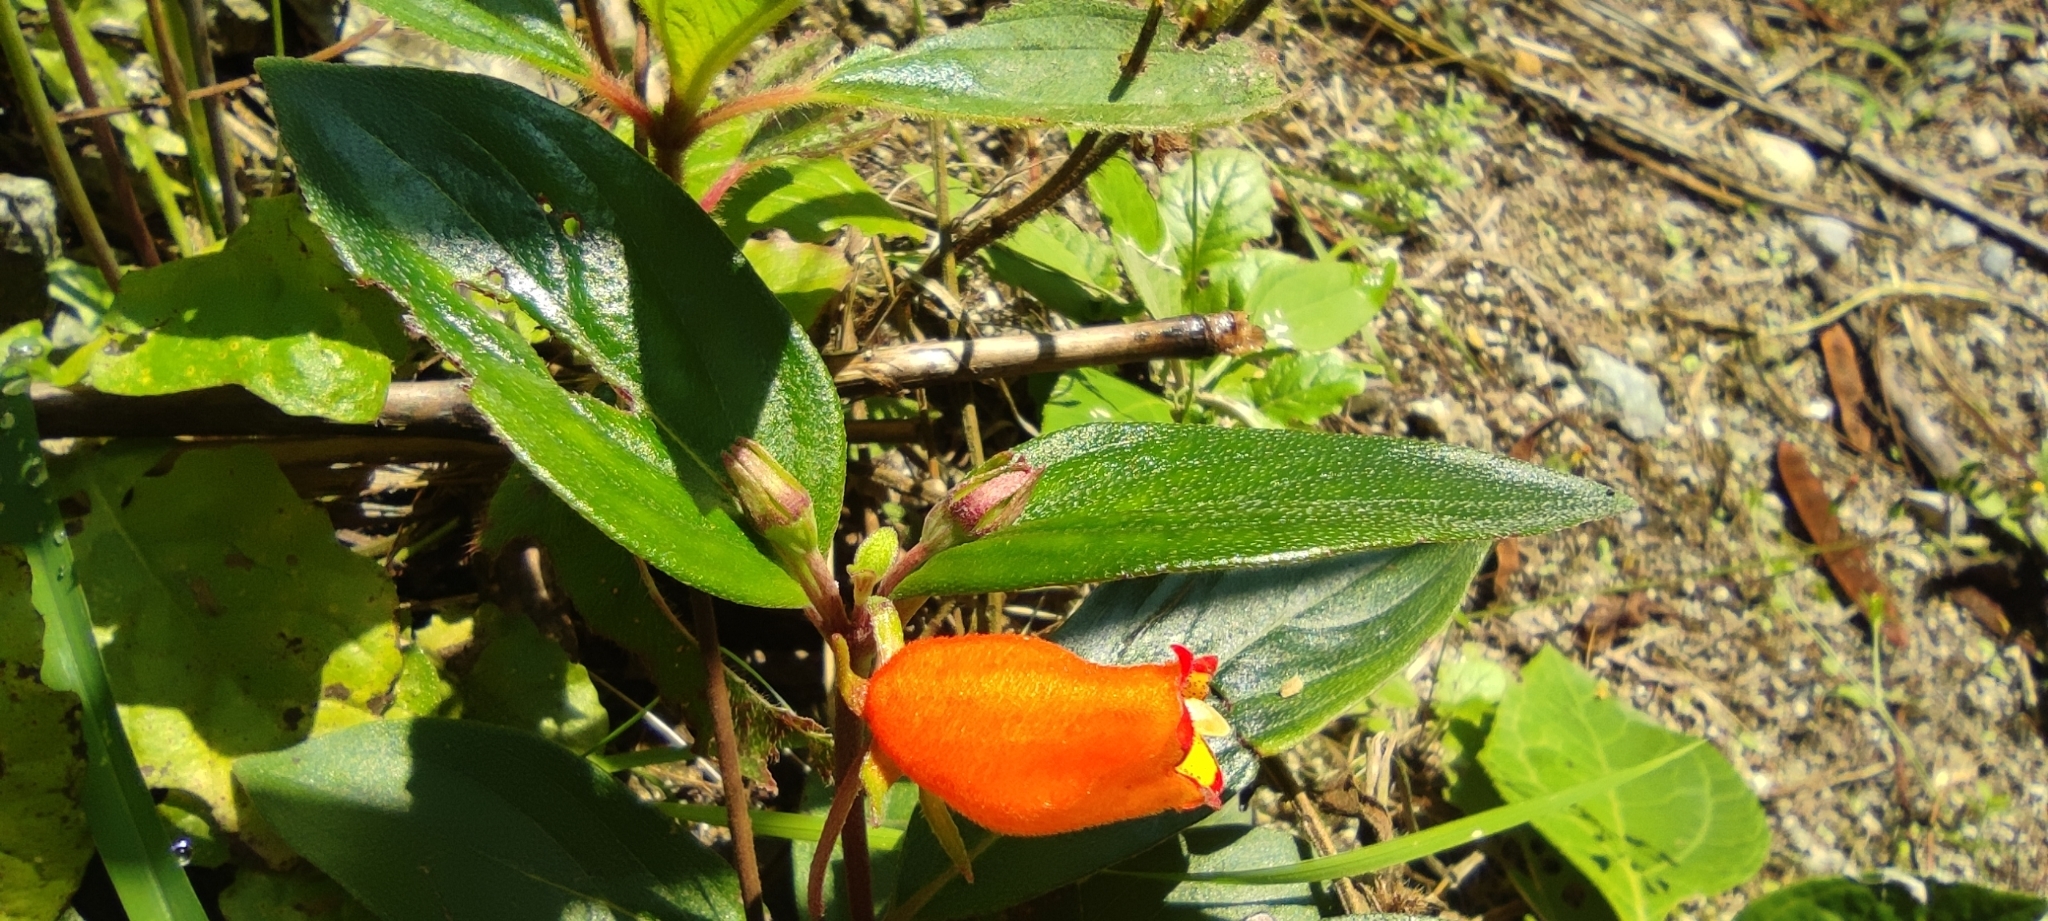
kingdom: Plantae
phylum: Tracheophyta
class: Magnoliopsida
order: Lamiales
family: Gesneriaceae
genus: Seemannia
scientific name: Seemannia sylvatica
